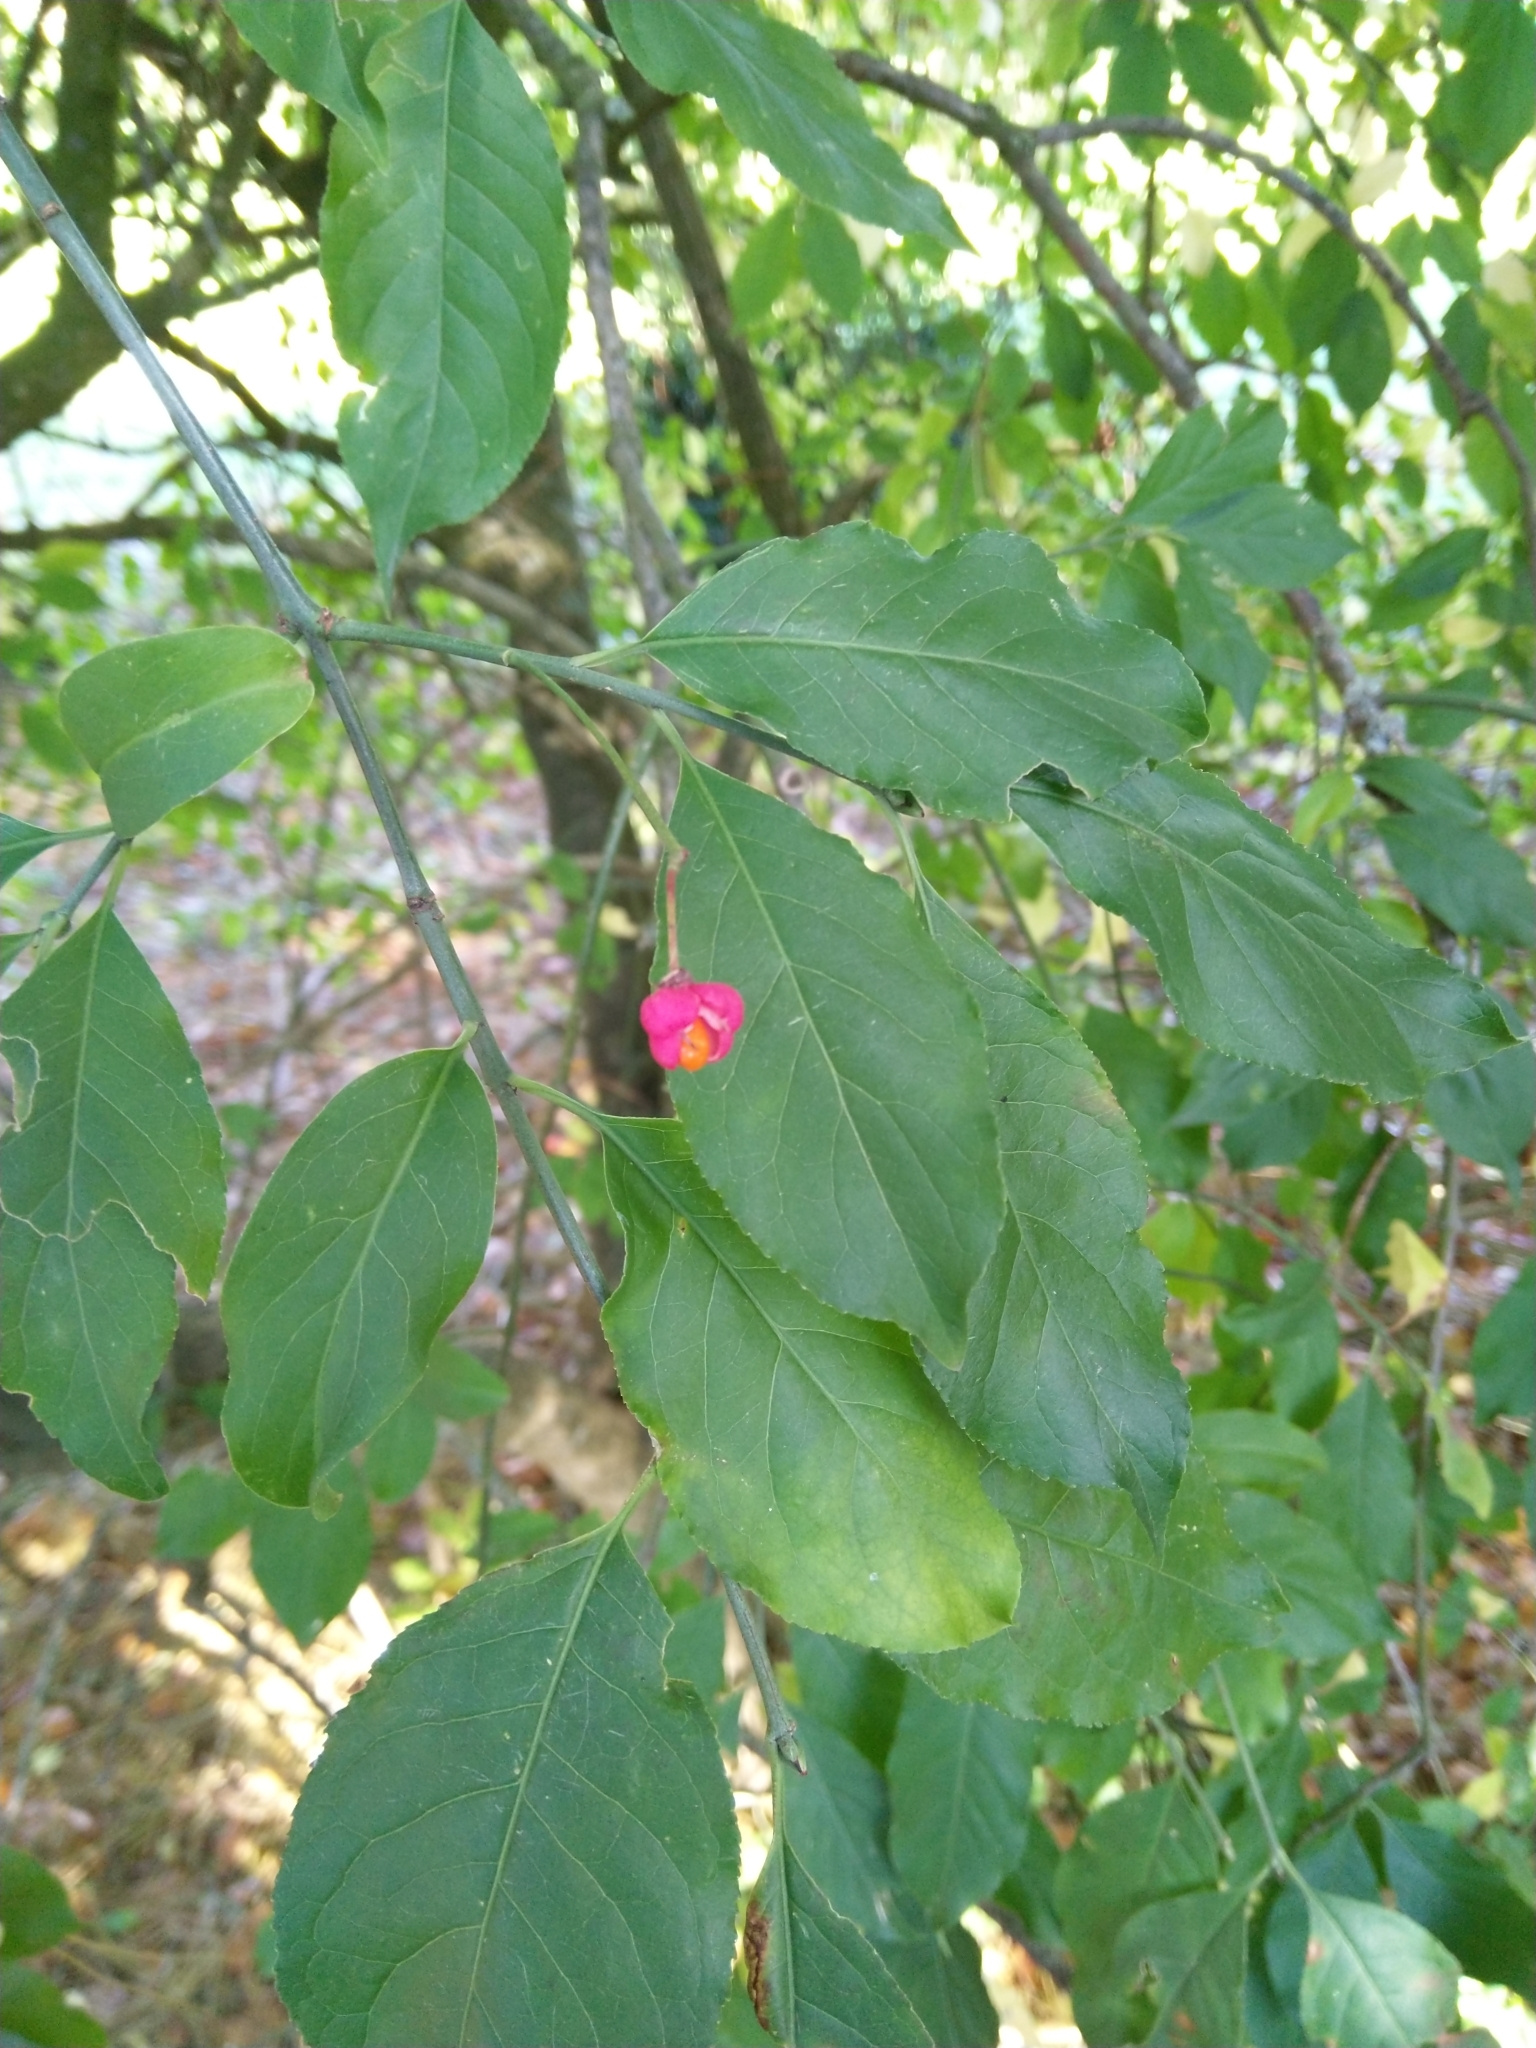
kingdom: Plantae
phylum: Tracheophyta
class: Magnoliopsida
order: Celastrales
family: Celastraceae
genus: Euonymus
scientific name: Euonymus europaeus
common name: Spindle
